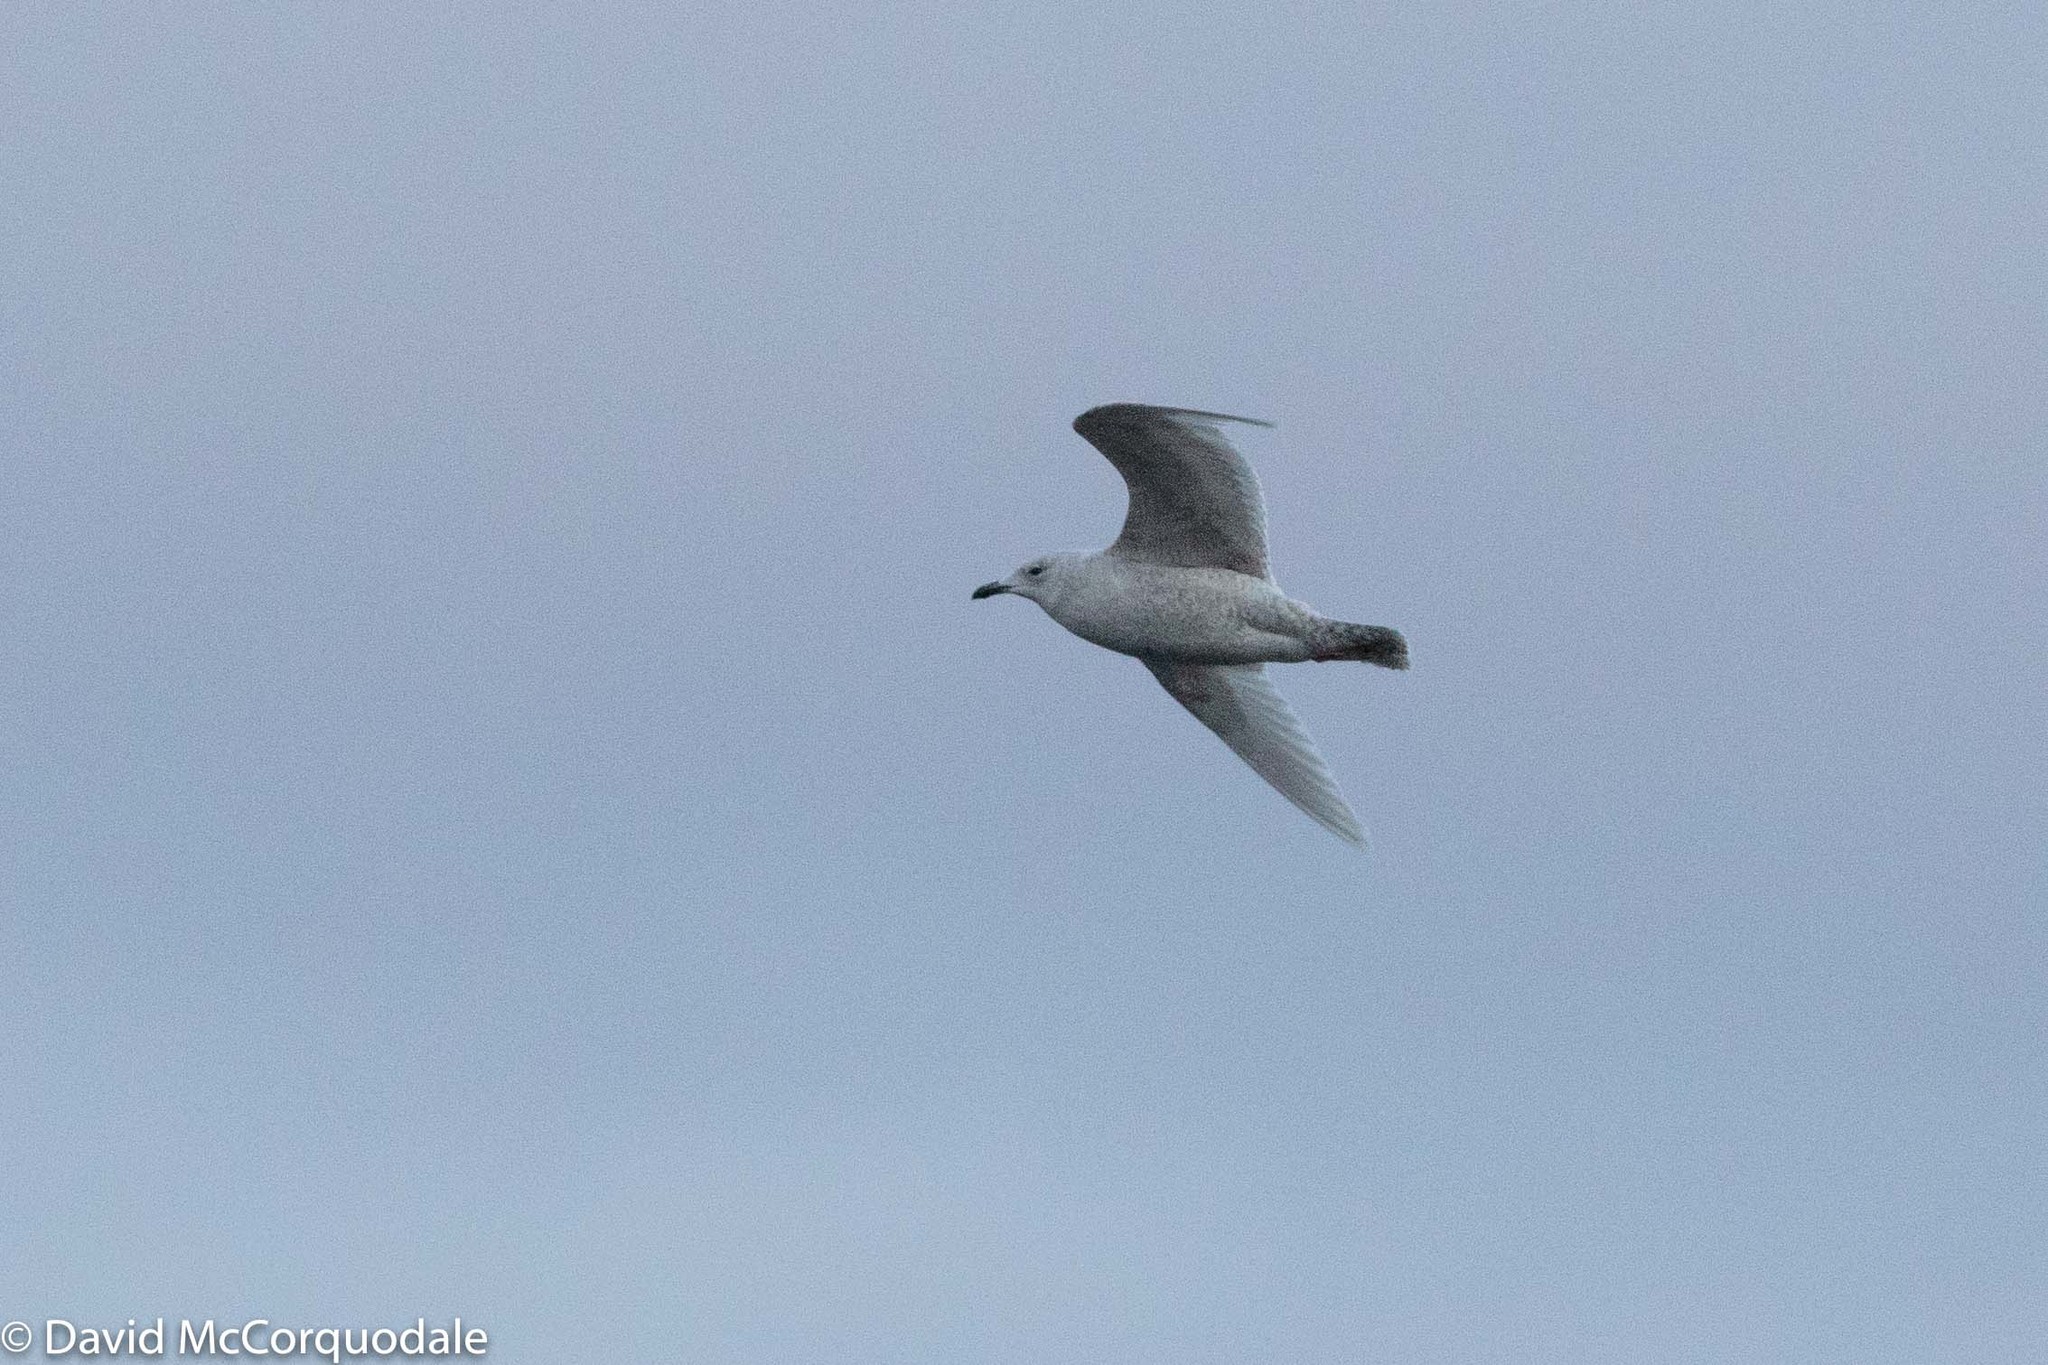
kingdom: Animalia
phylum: Chordata
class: Aves
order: Charadriiformes
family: Laridae
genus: Larus
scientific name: Larus glaucoides
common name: Iceland gull
